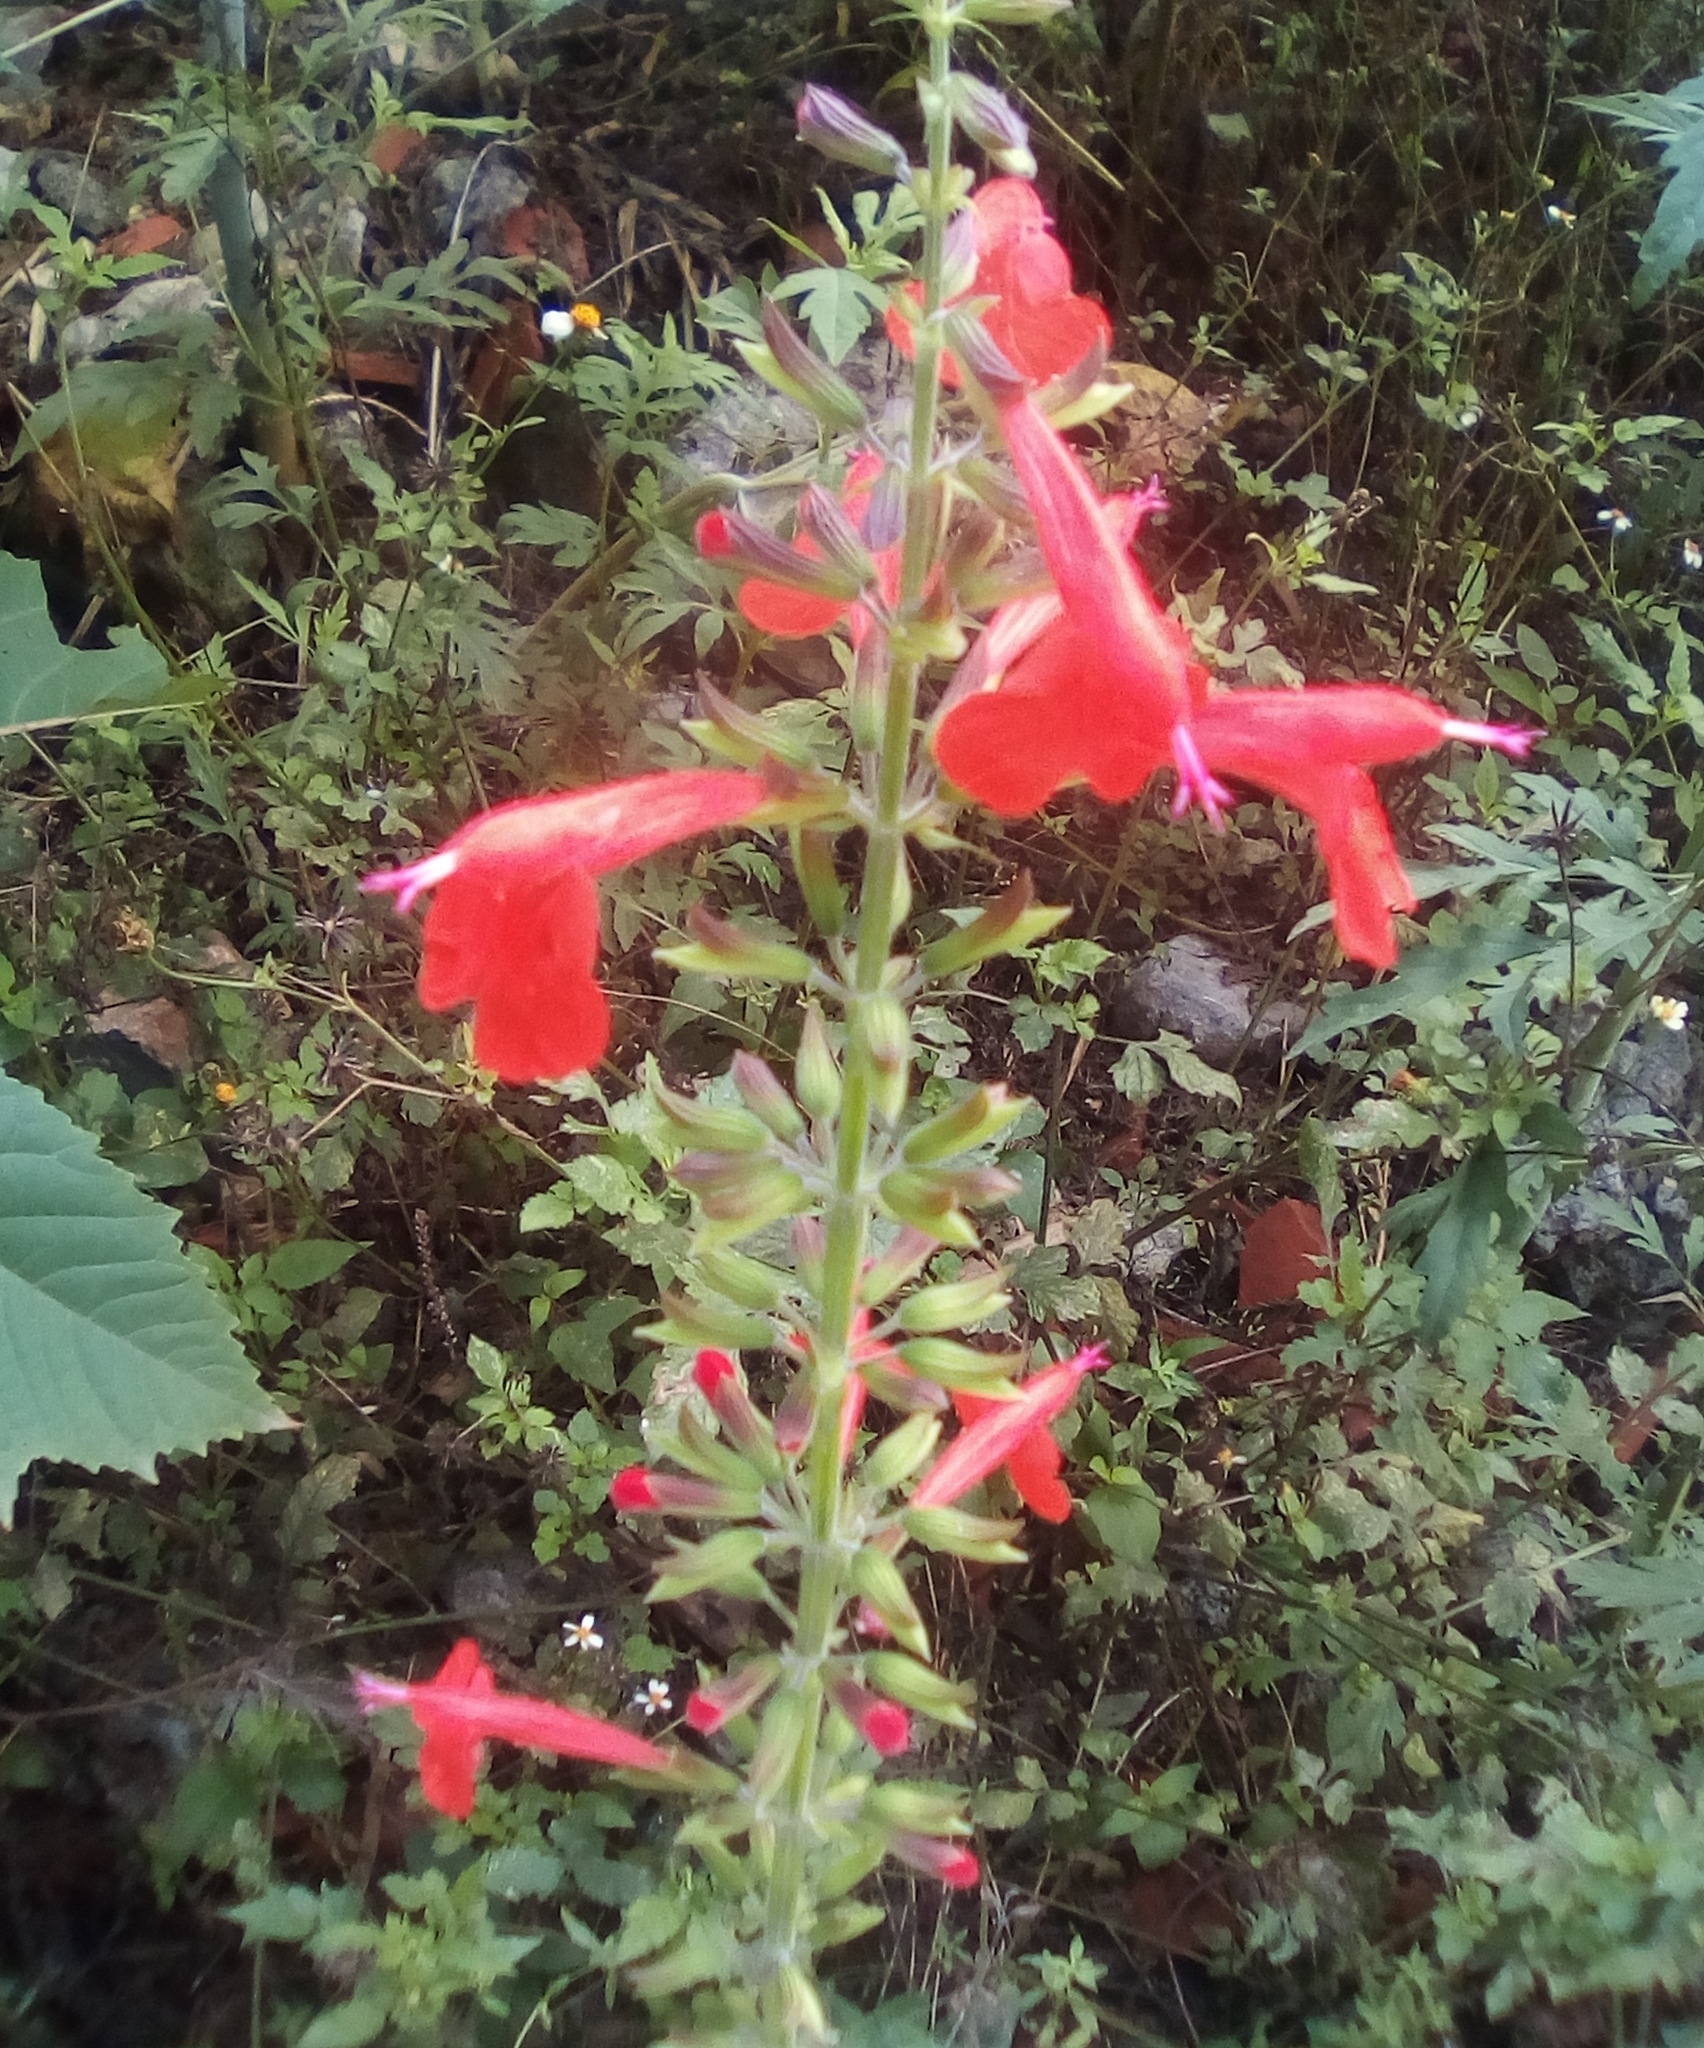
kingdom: Plantae
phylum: Tracheophyta
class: Magnoliopsida
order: Lamiales
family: Lamiaceae
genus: Salvia
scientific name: Salvia coccinea
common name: Blood sage
